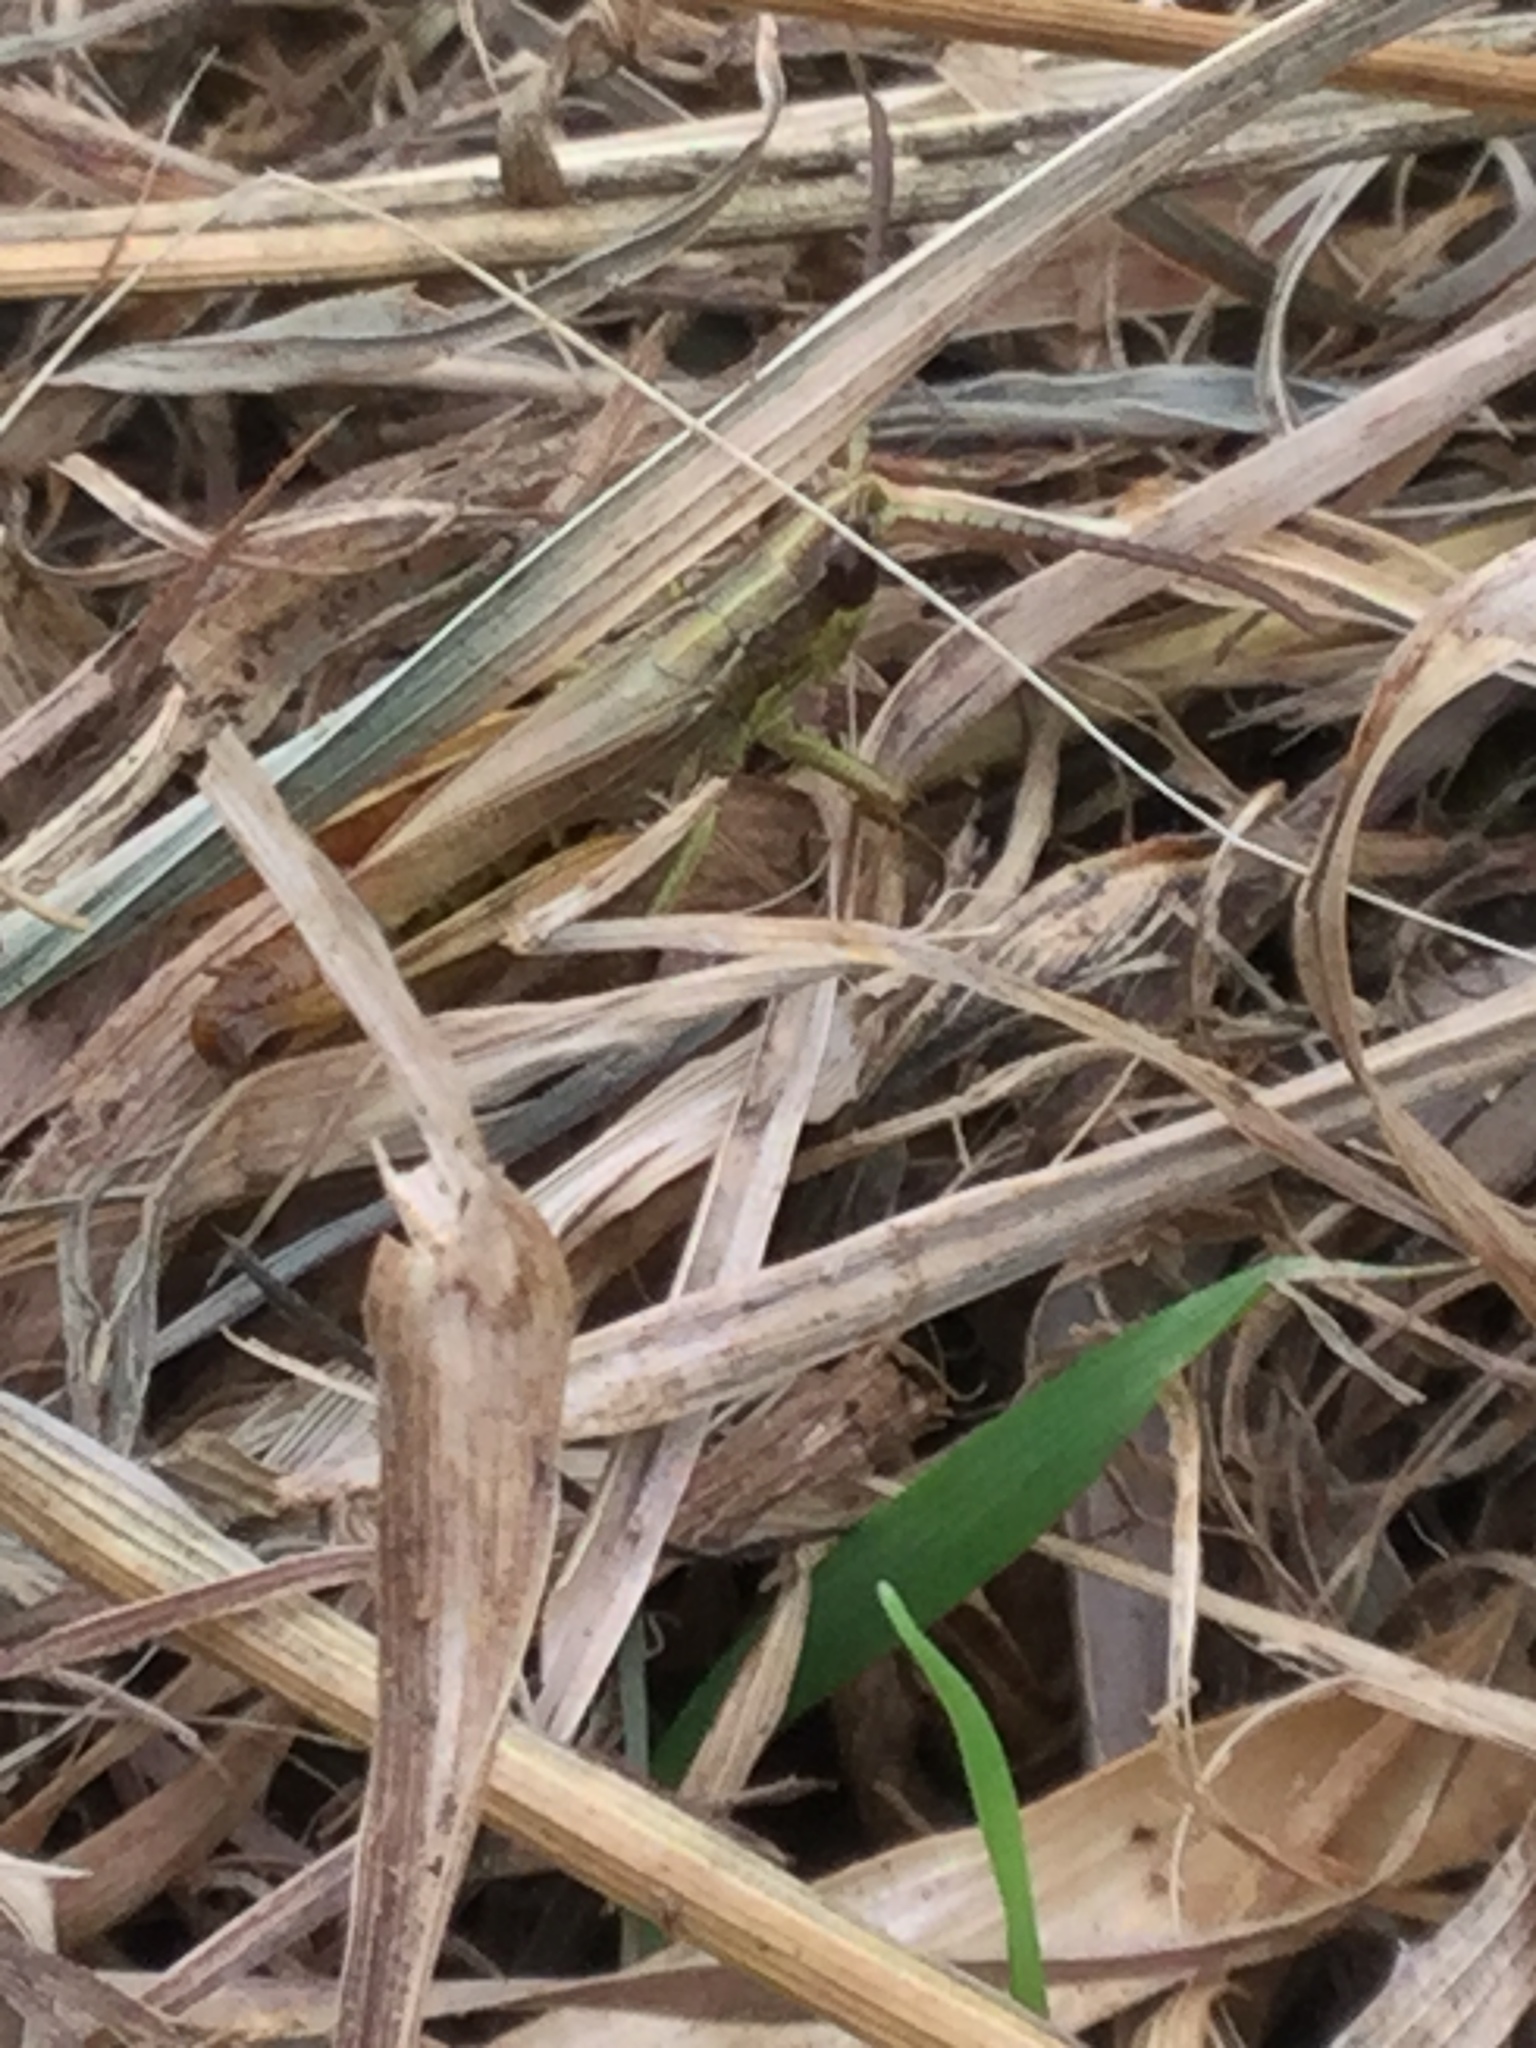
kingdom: Animalia
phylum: Arthropoda
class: Insecta
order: Orthoptera
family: Acrididae
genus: Pseudochorthippus
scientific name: Pseudochorthippus parallelus
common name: Meadow grasshopper
